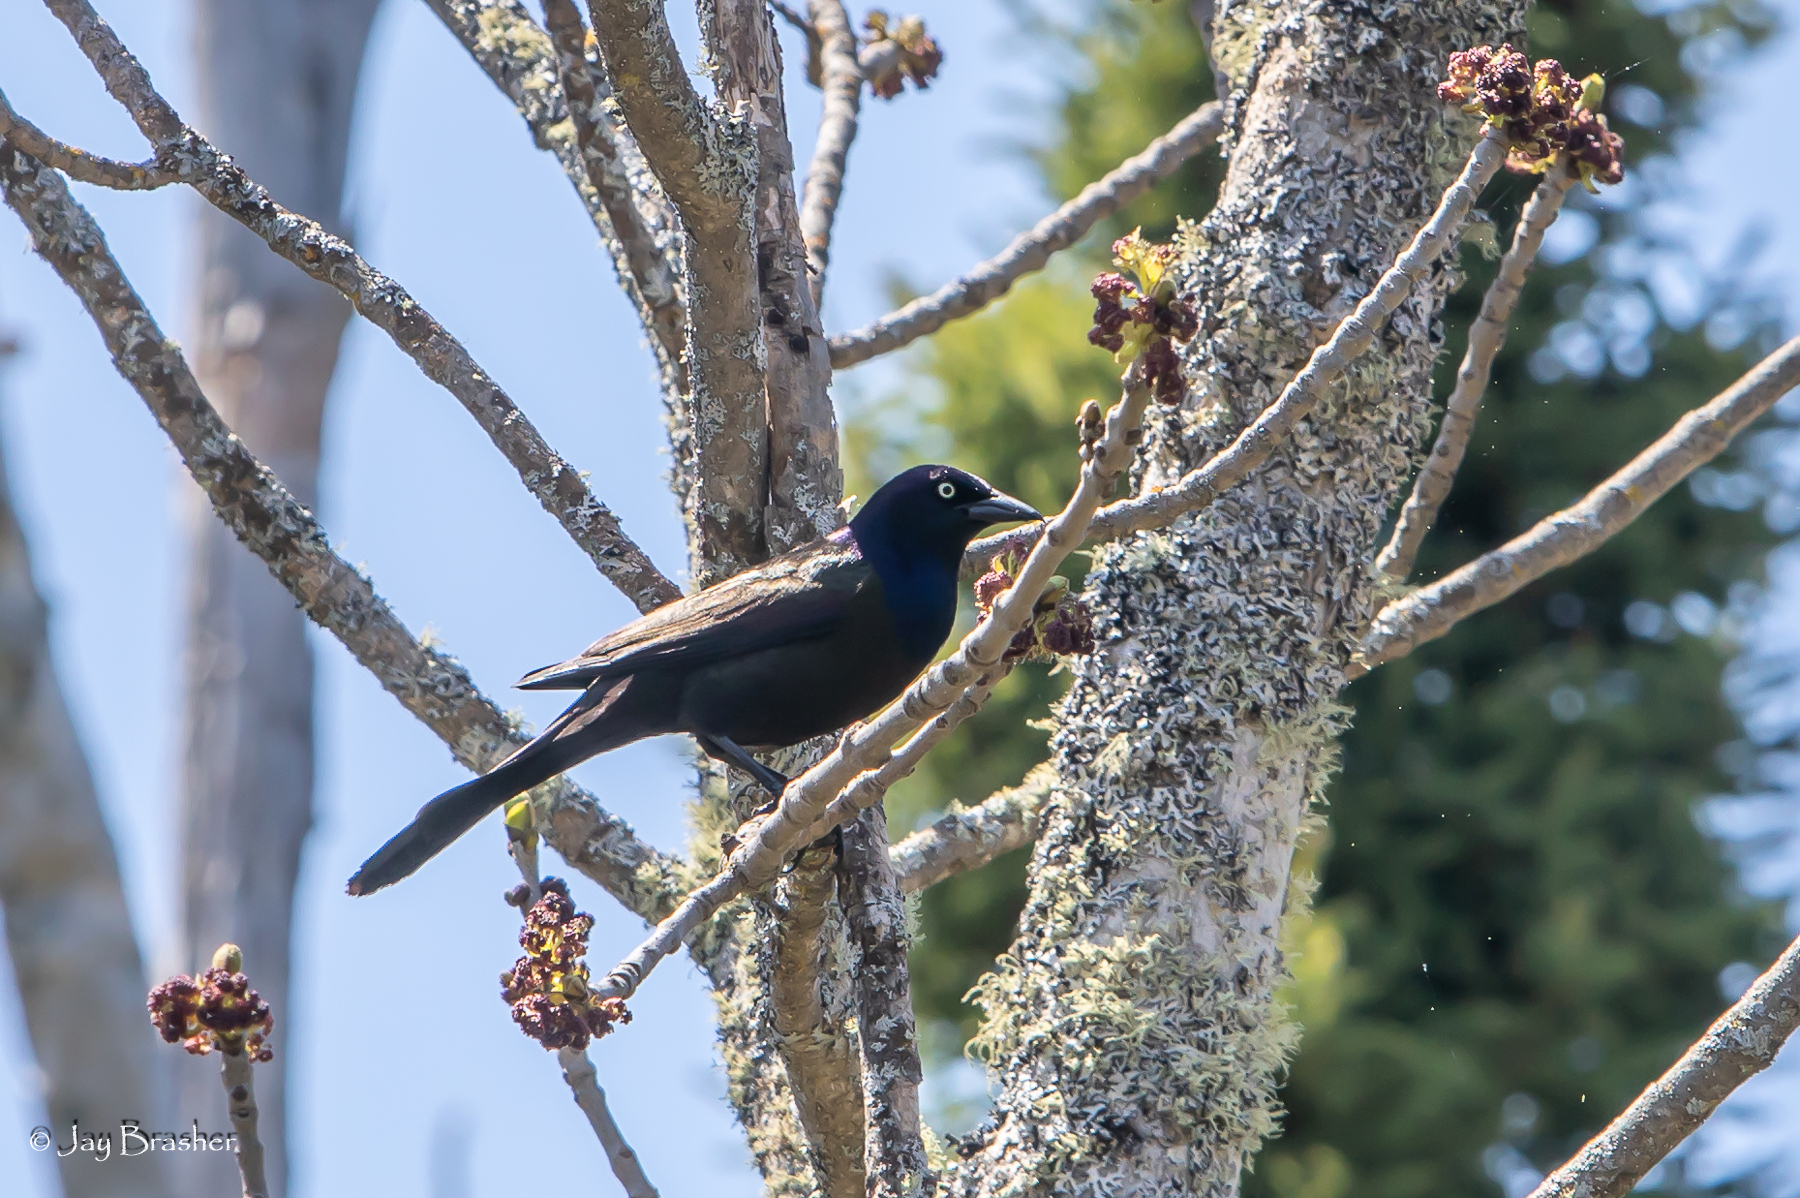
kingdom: Animalia
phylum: Chordata
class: Aves
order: Passeriformes
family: Icteridae
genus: Quiscalus
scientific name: Quiscalus quiscula
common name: Common grackle
